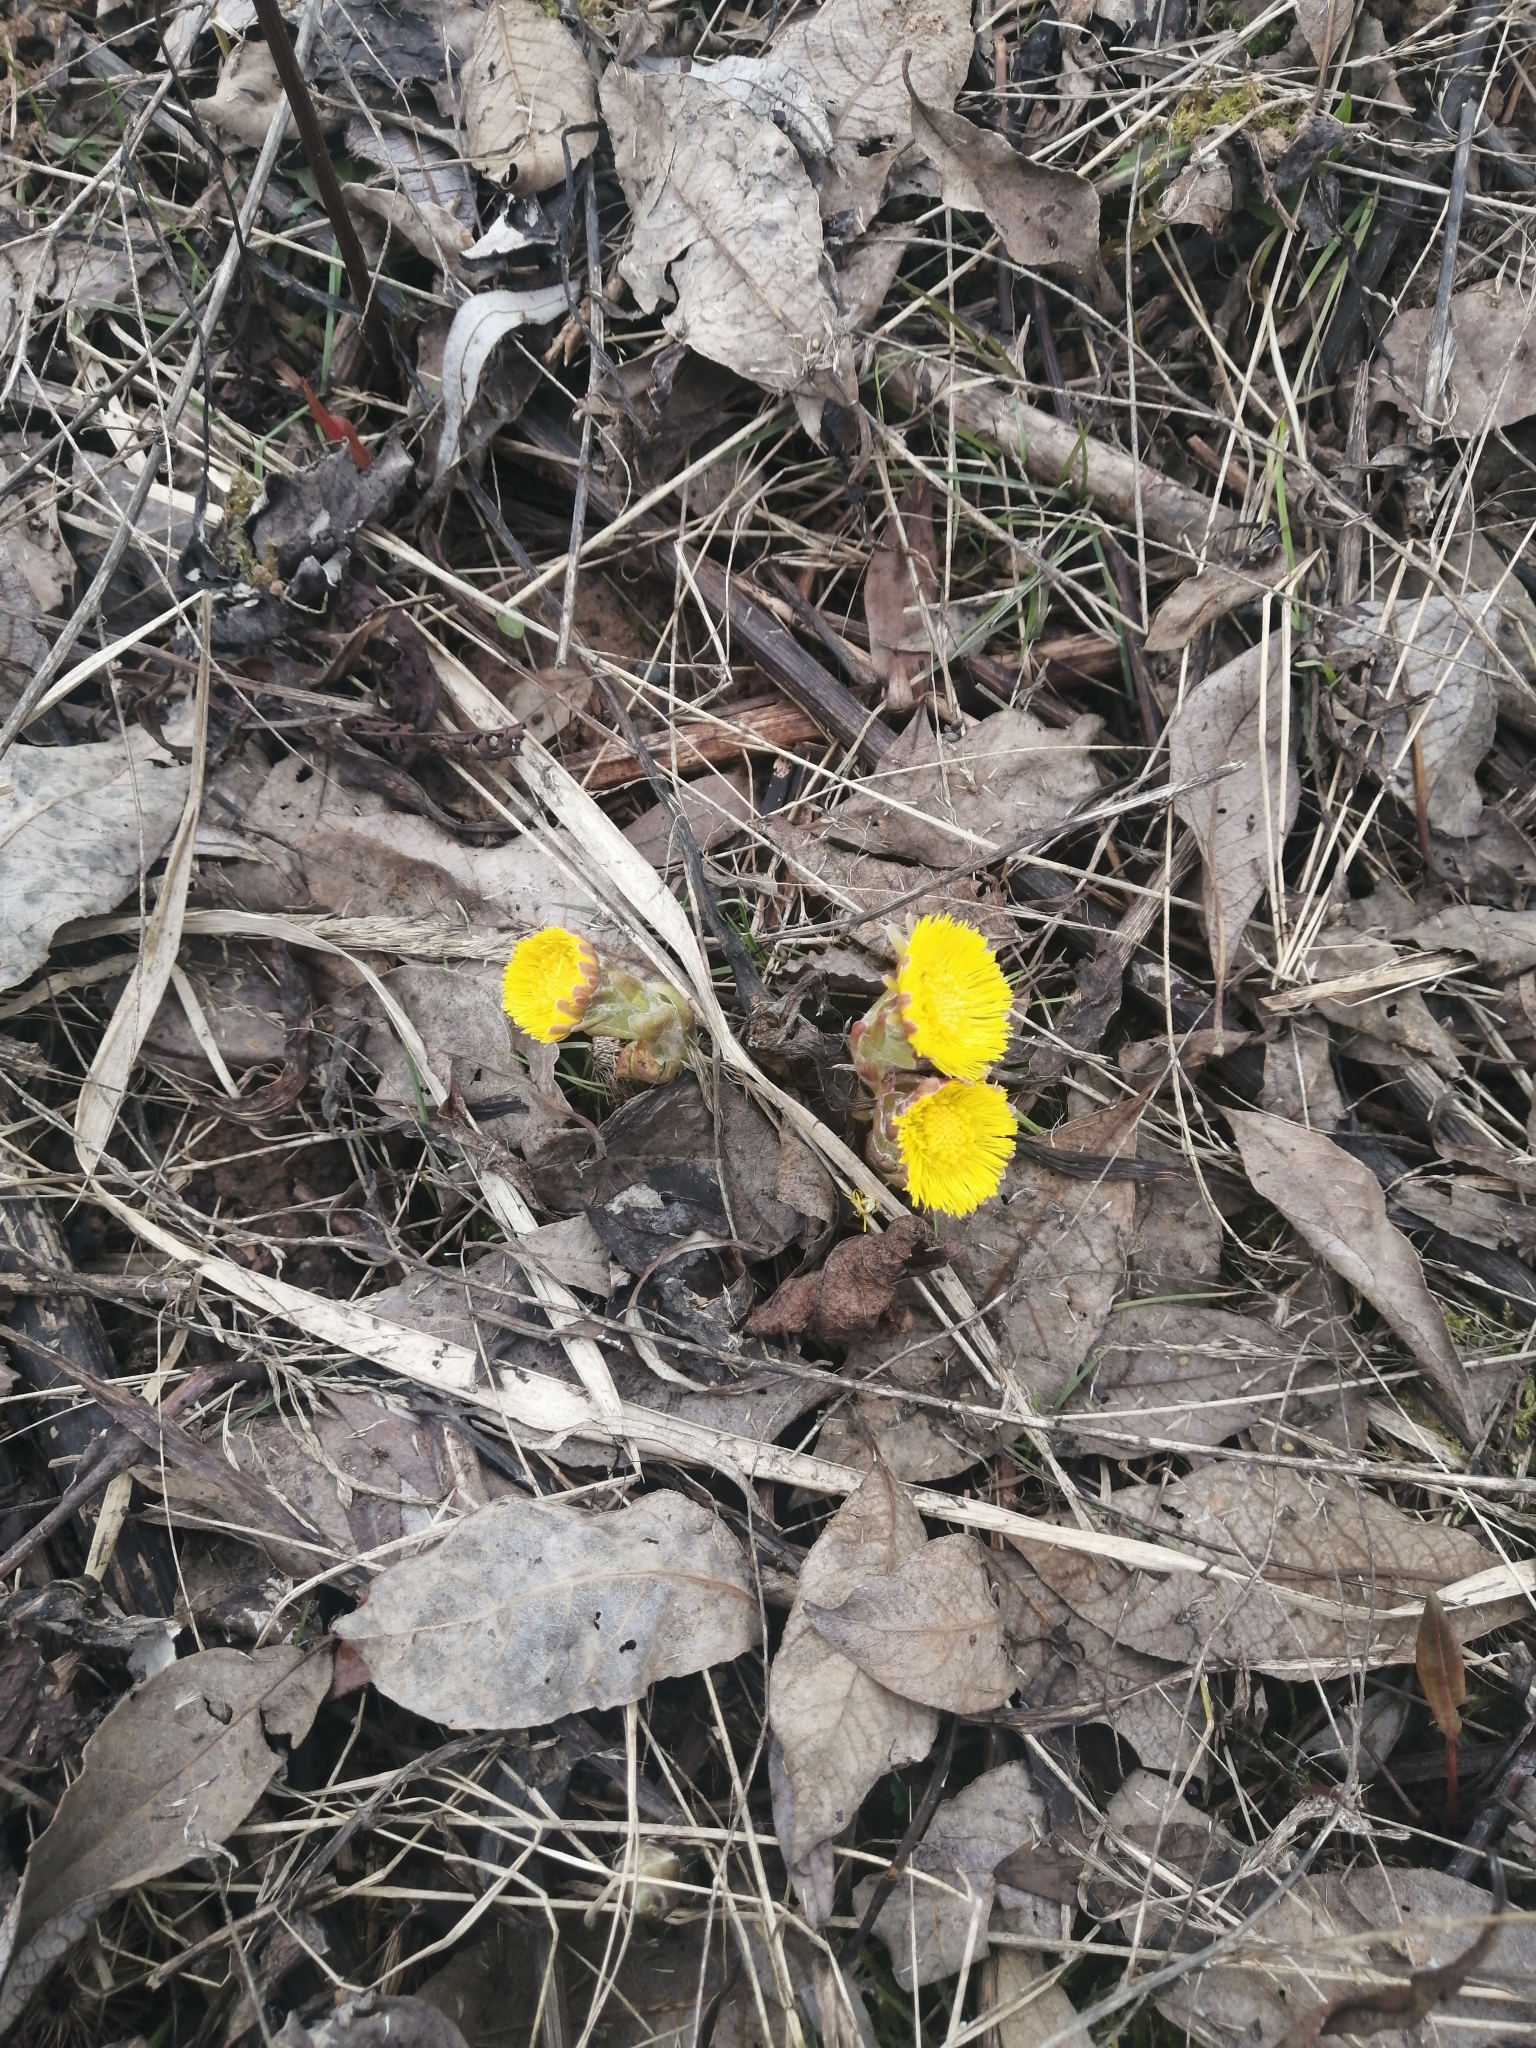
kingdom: Plantae
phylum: Tracheophyta
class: Magnoliopsida
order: Asterales
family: Asteraceae
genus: Tussilago
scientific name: Tussilago farfara
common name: Coltsfoot
